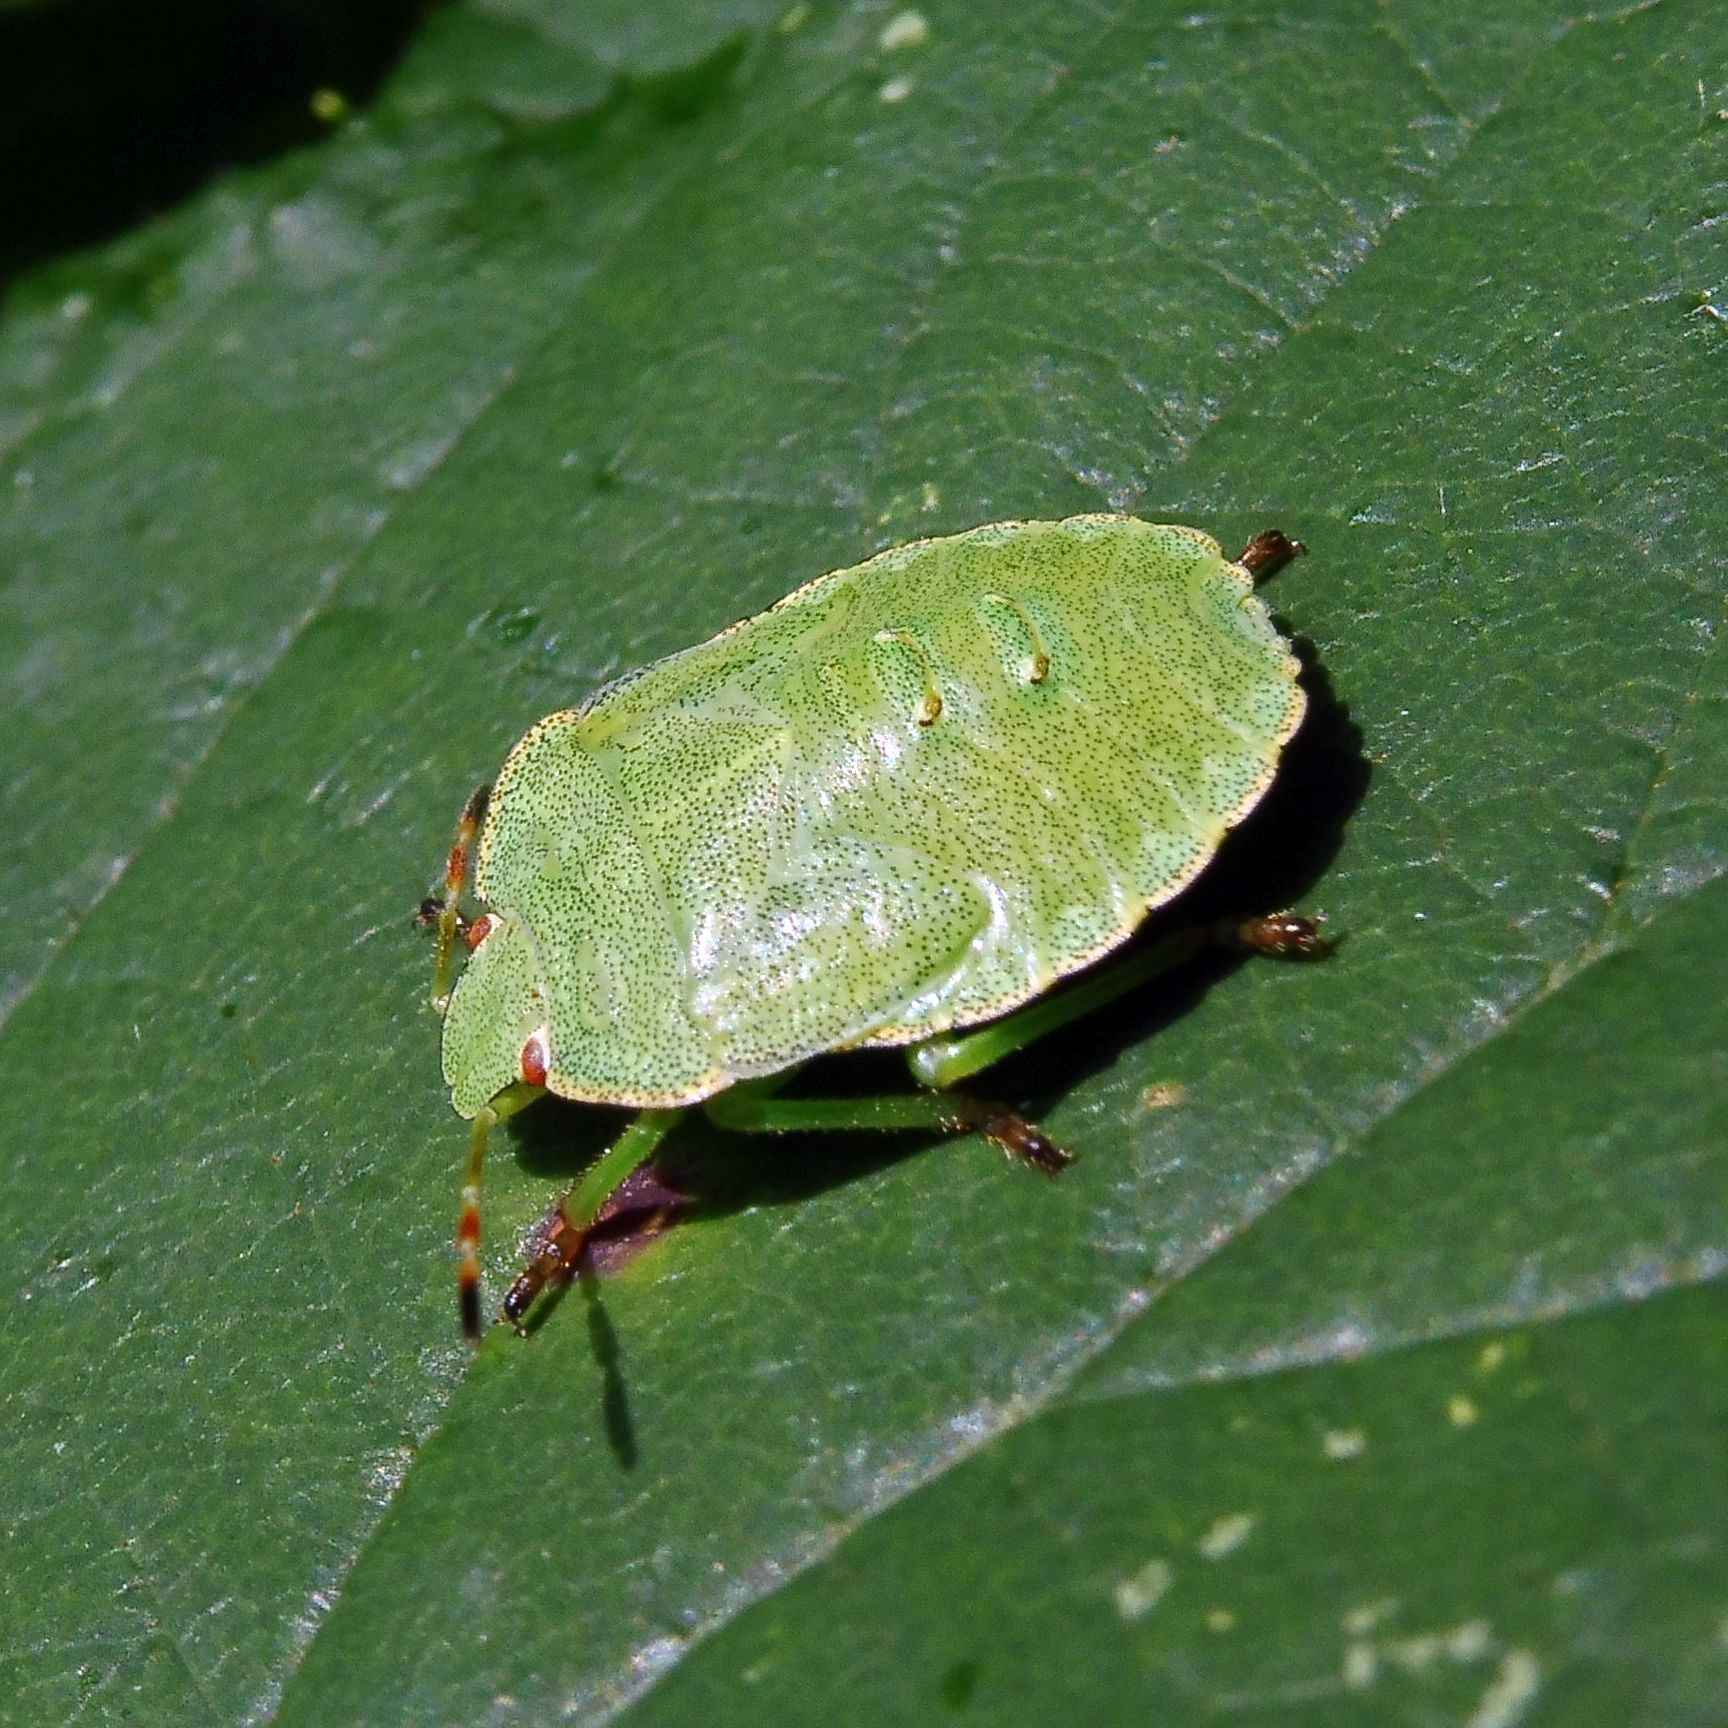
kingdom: Animalia
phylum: Arthropoda
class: Insecta
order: Hemiptera
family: Pentatomidae
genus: Palomena
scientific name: Palomena prasina
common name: Green shieldbug
